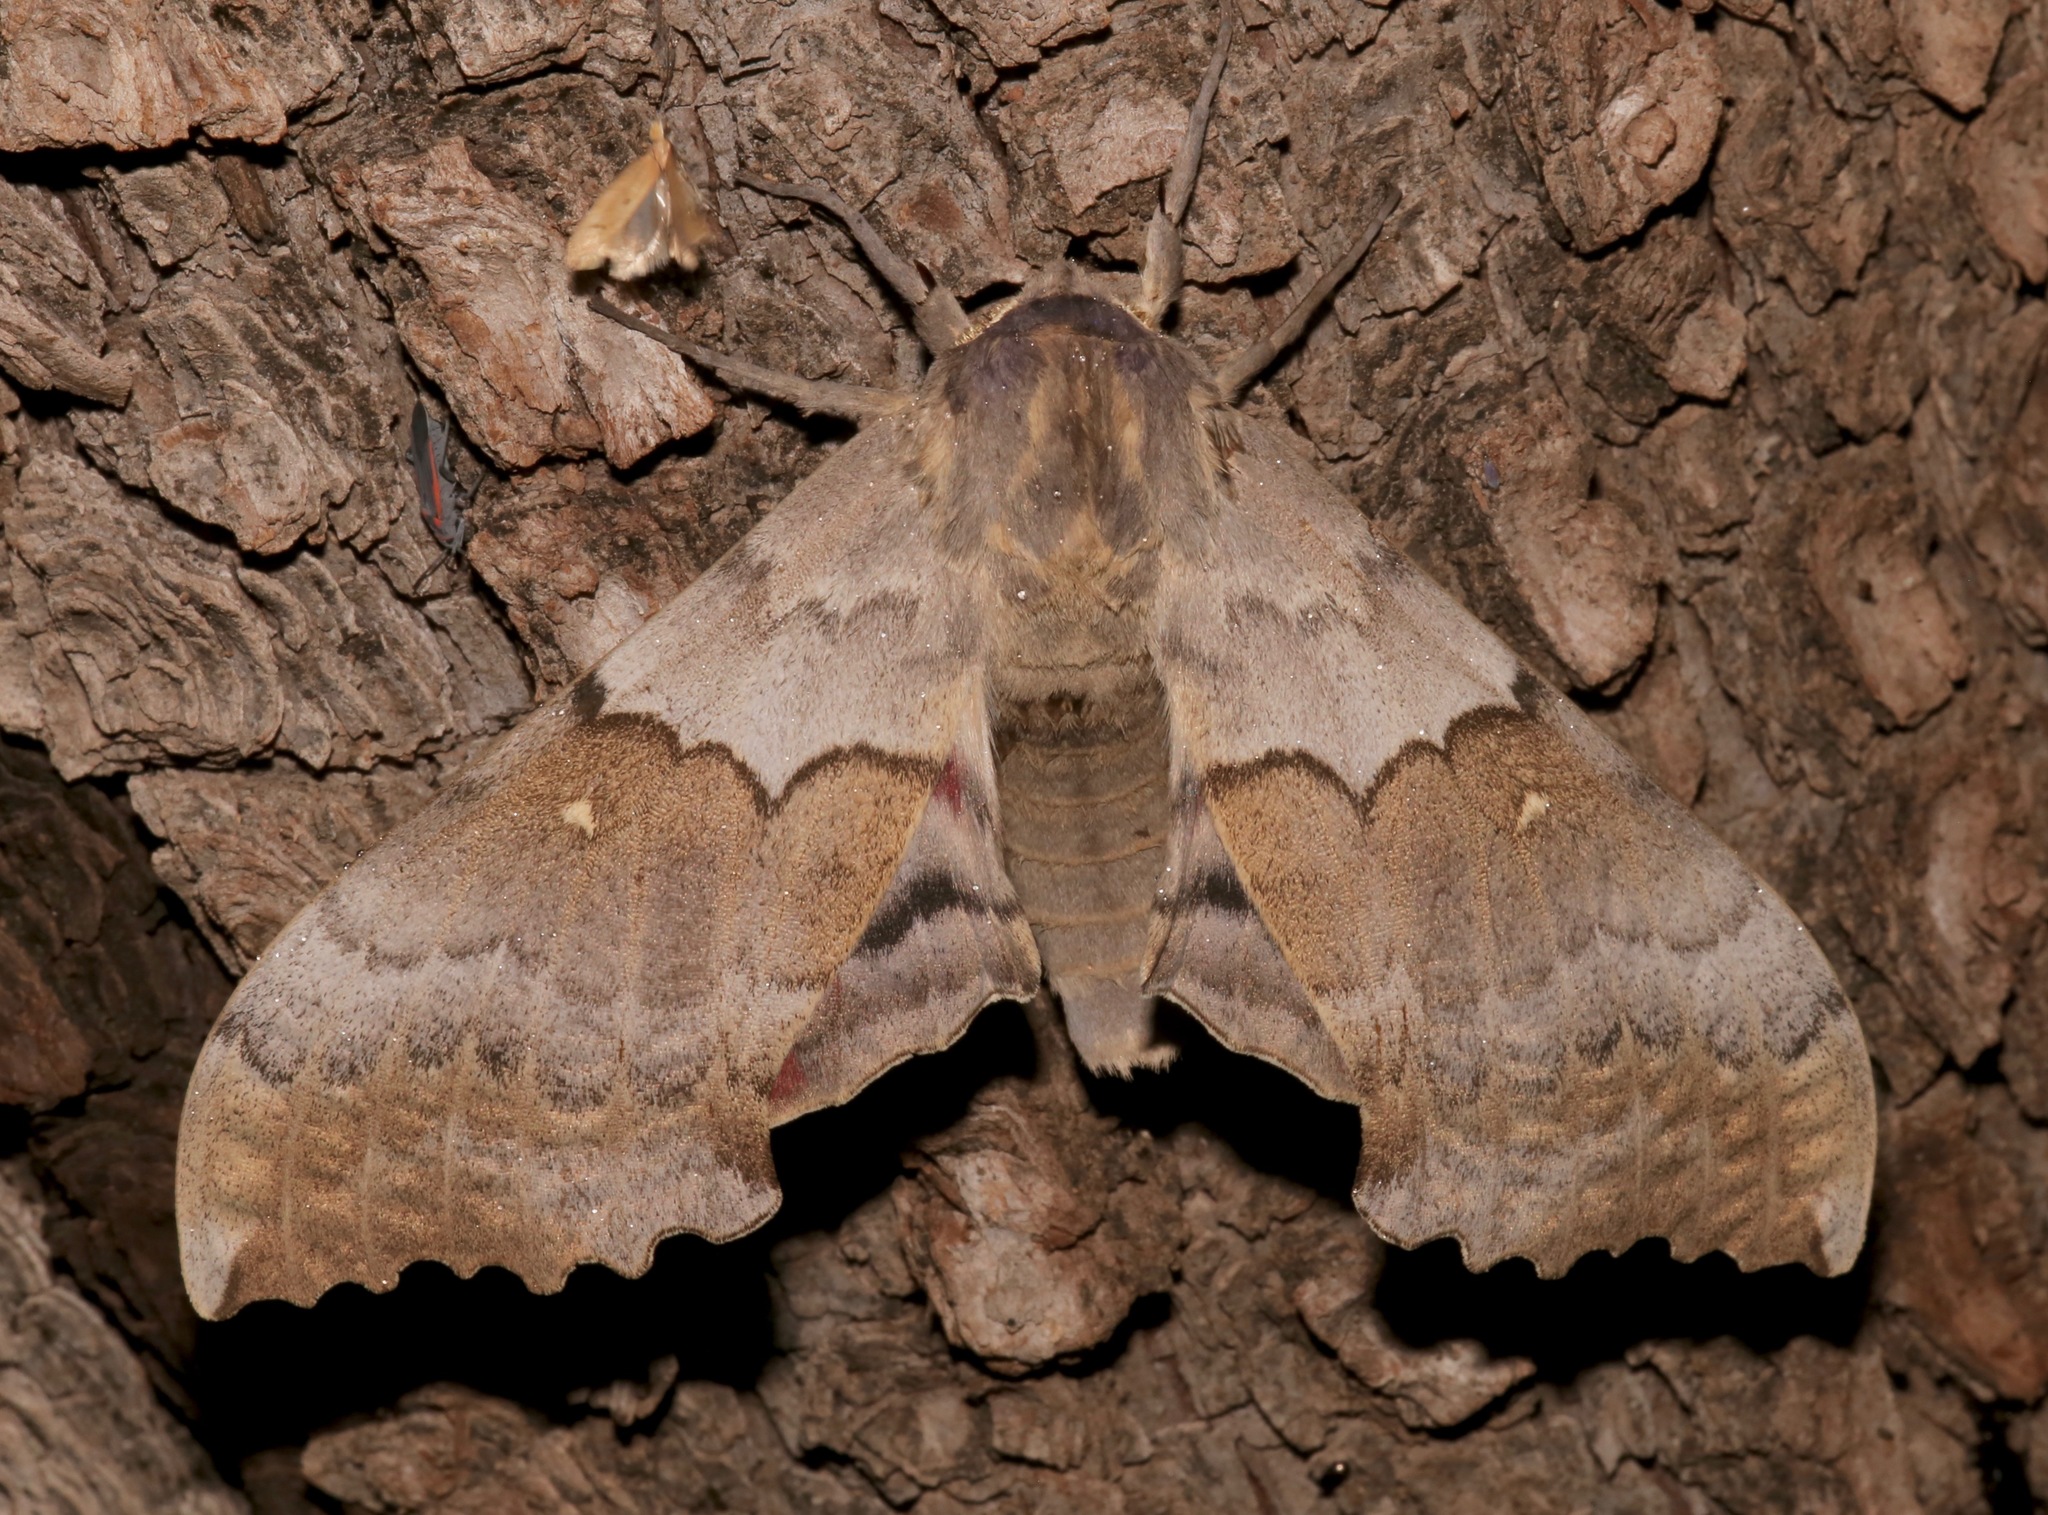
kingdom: Animalia
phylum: Arthropoda
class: Insecta
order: Lepidoptera
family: Sphingidae
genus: Pachysphinx
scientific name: Pachysphinx occidentalis
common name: Western poplar sphinx
